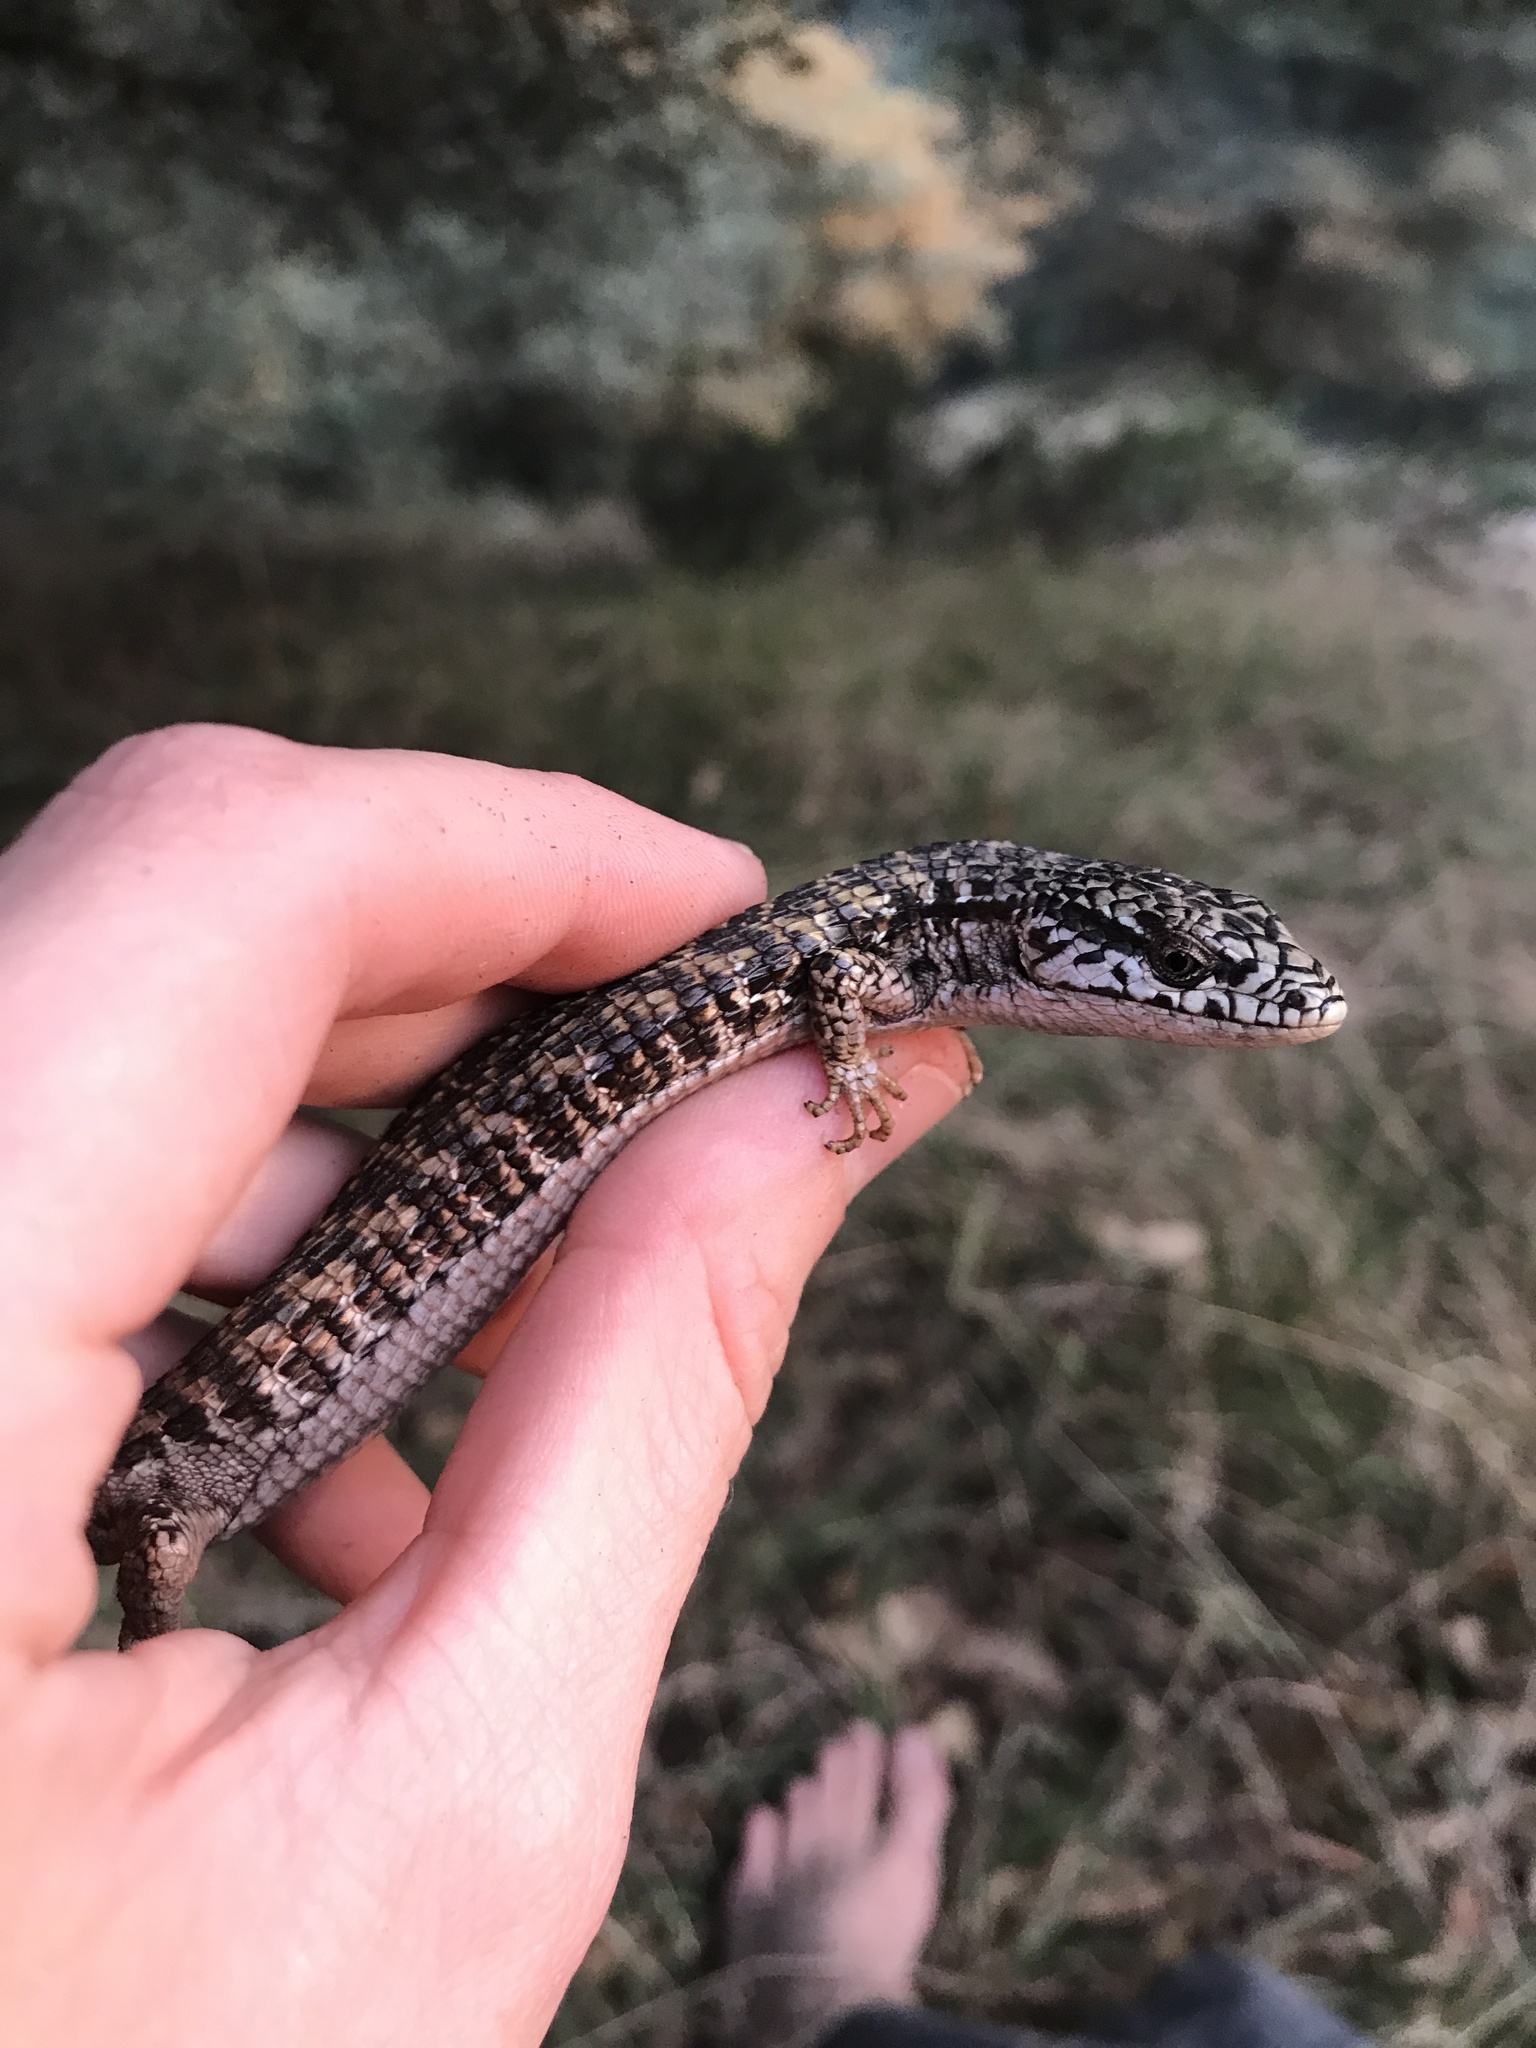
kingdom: Animalia
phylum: Chordata
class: Squamata
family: Anguidae
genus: Elgaria
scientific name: Elgaria coerulea
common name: Northern alligator lizard
